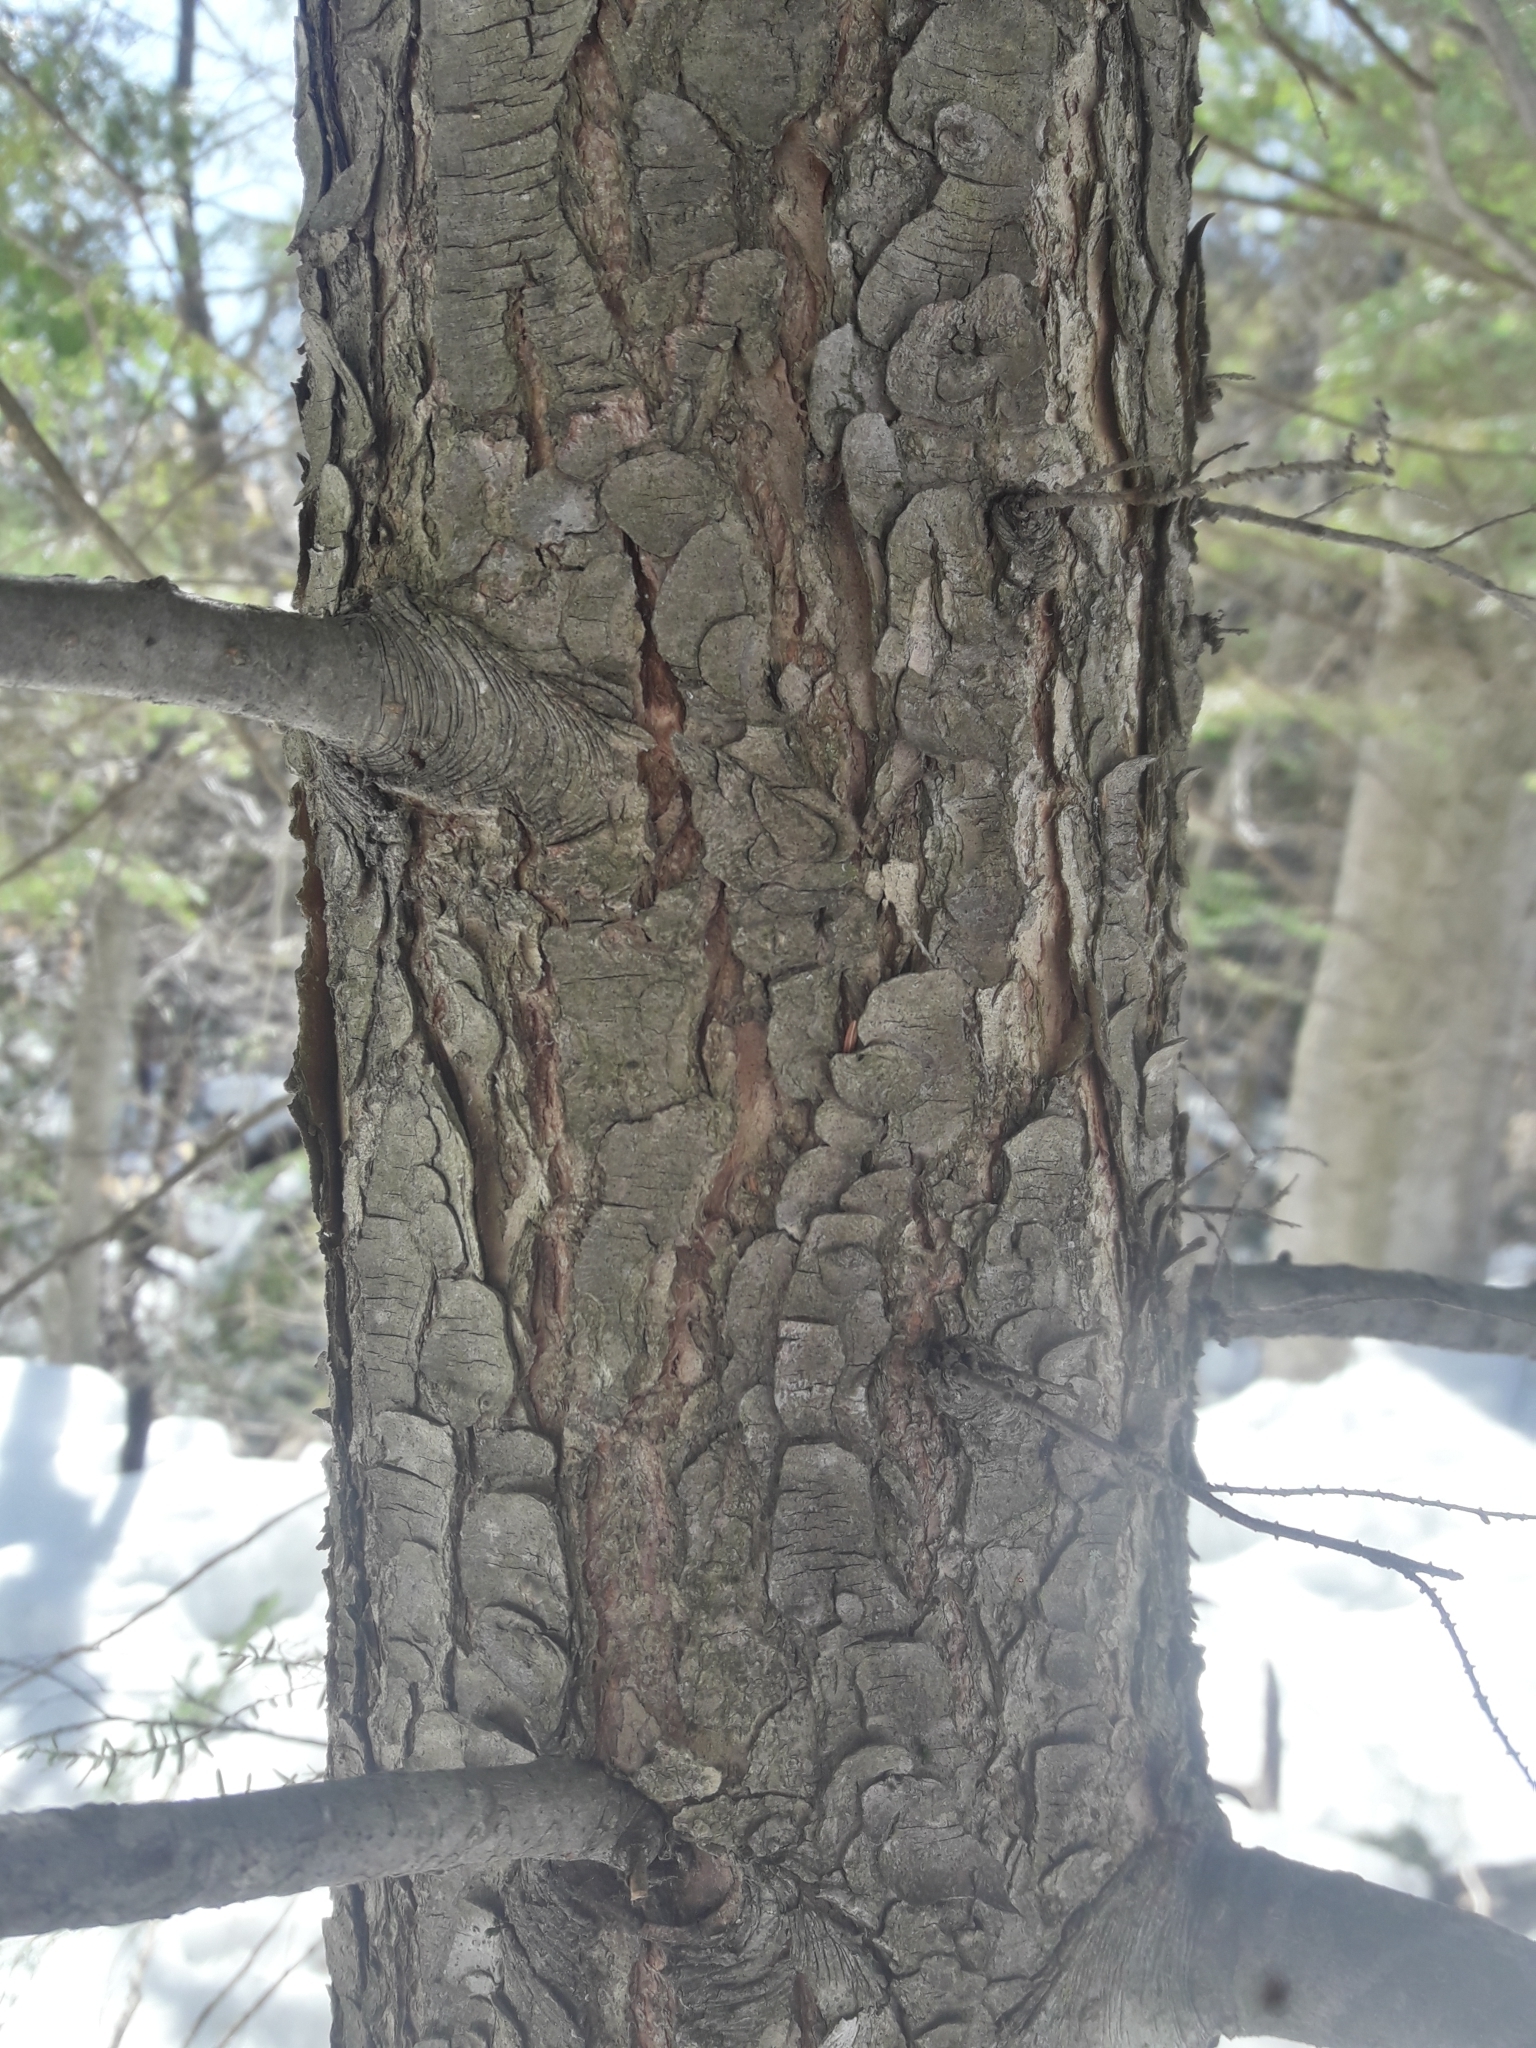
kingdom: Plantae
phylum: Tracheophyta
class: Pinopsida
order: Pinales
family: Pinaceae
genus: Tsuga
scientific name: Tsuga canadensis
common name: Eastern hemlock
